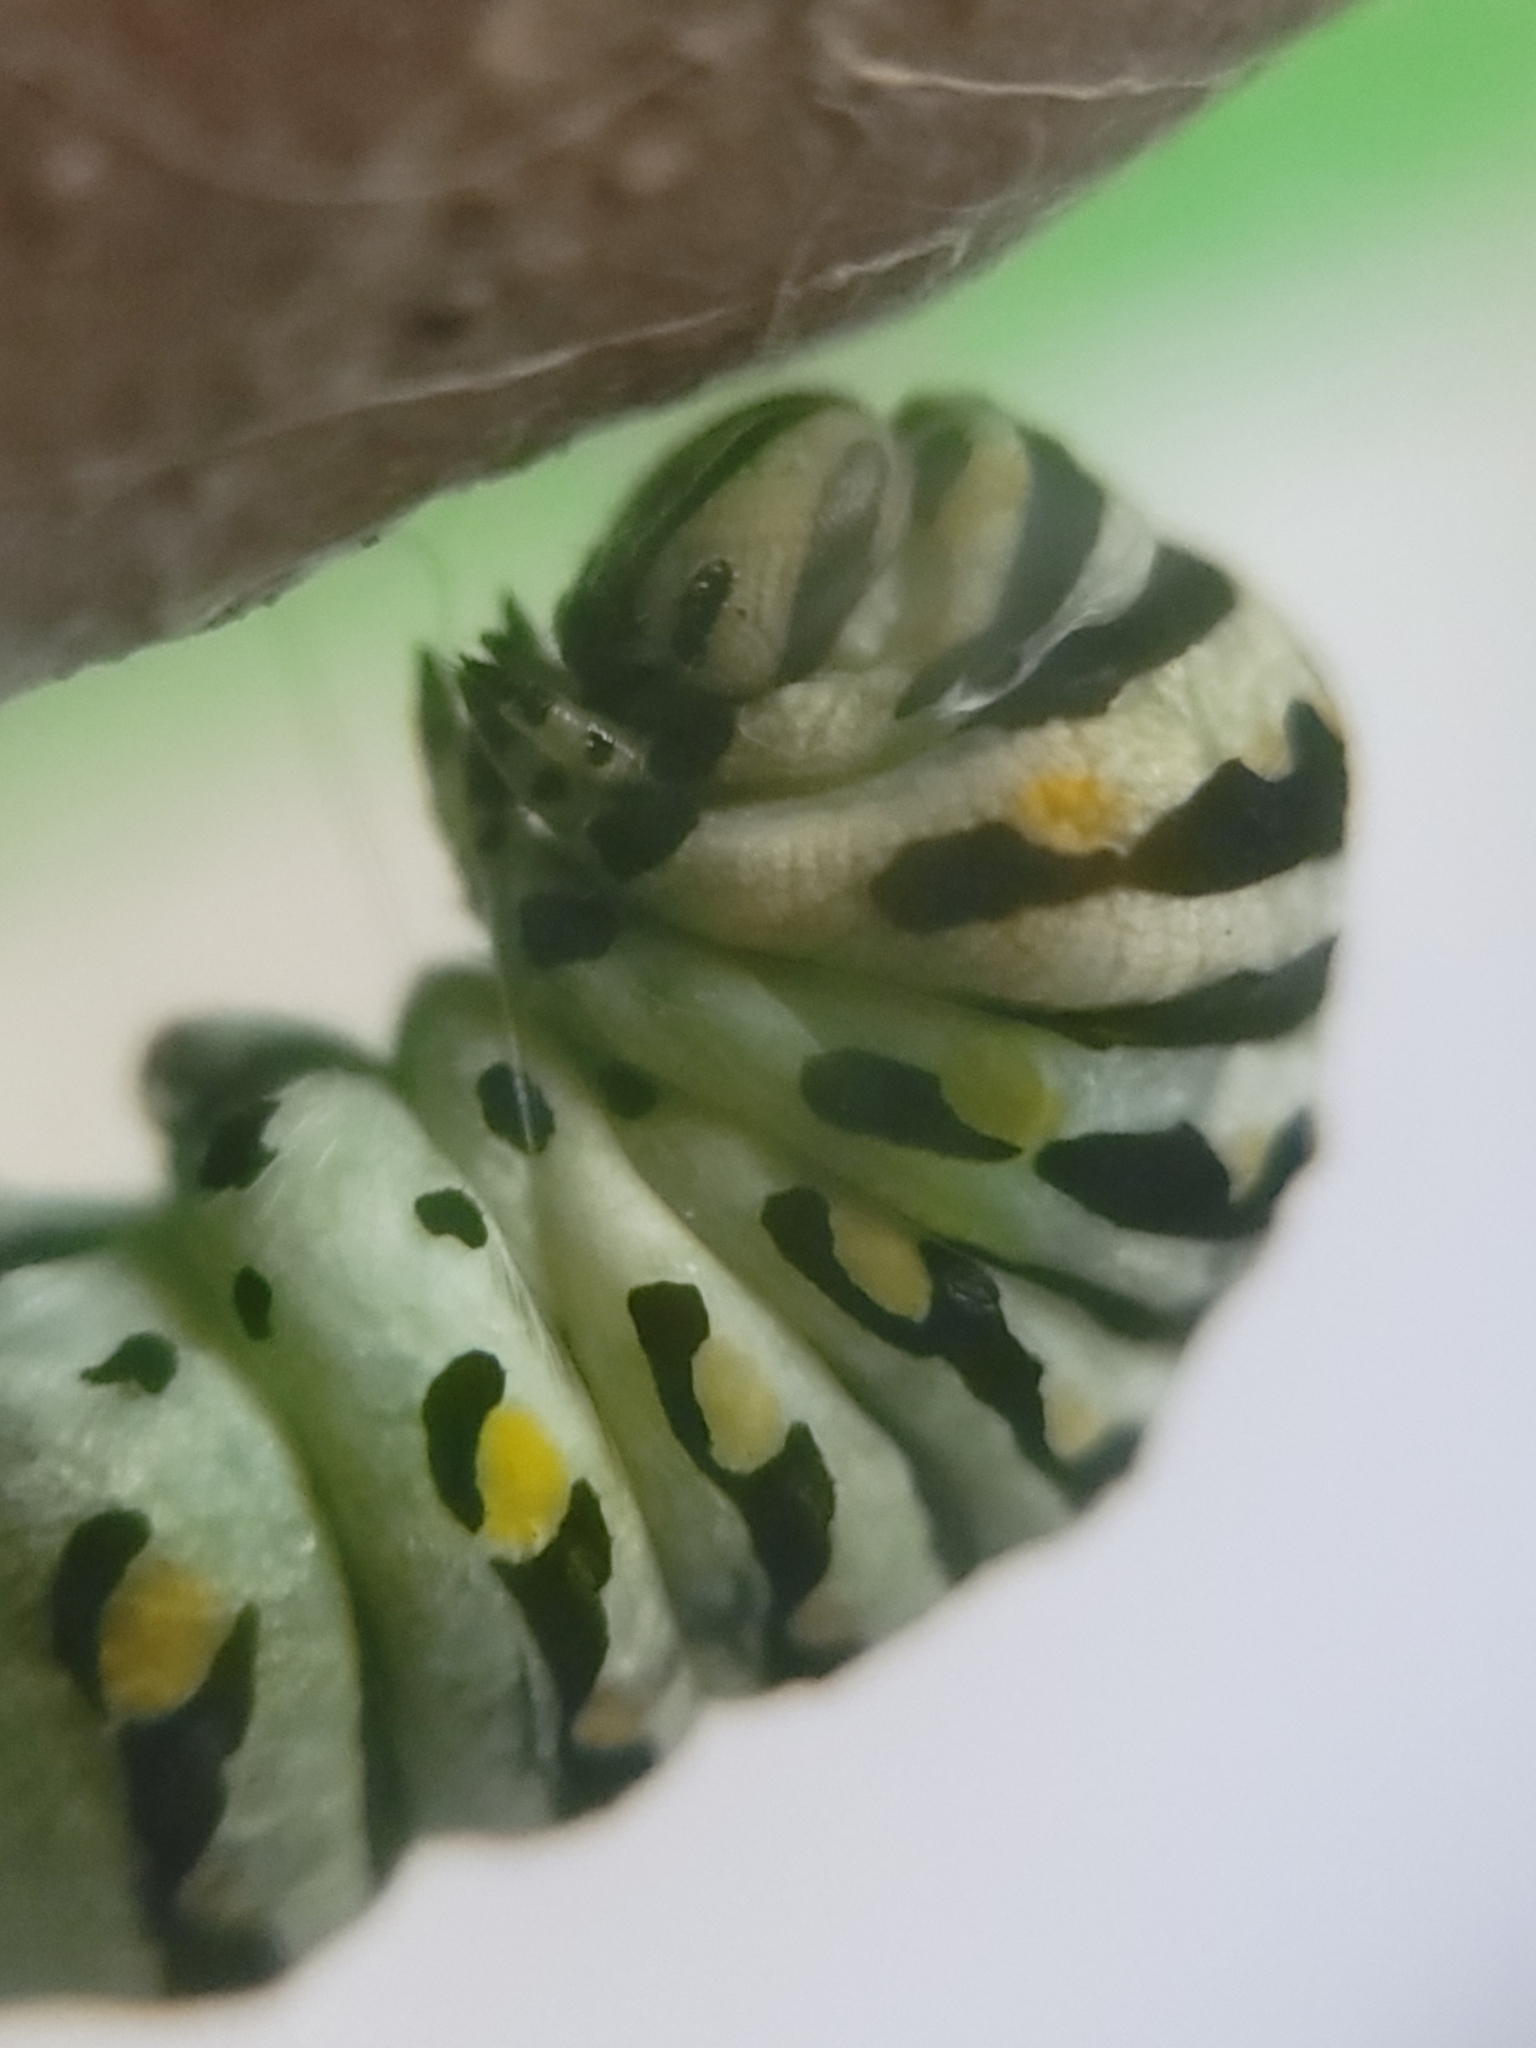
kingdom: Animalia
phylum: Arthropoda
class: Insecta
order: Lepidoptera
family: Papilionidae
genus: Papilio
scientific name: Papilio polyxenes
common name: Black swallowtail
